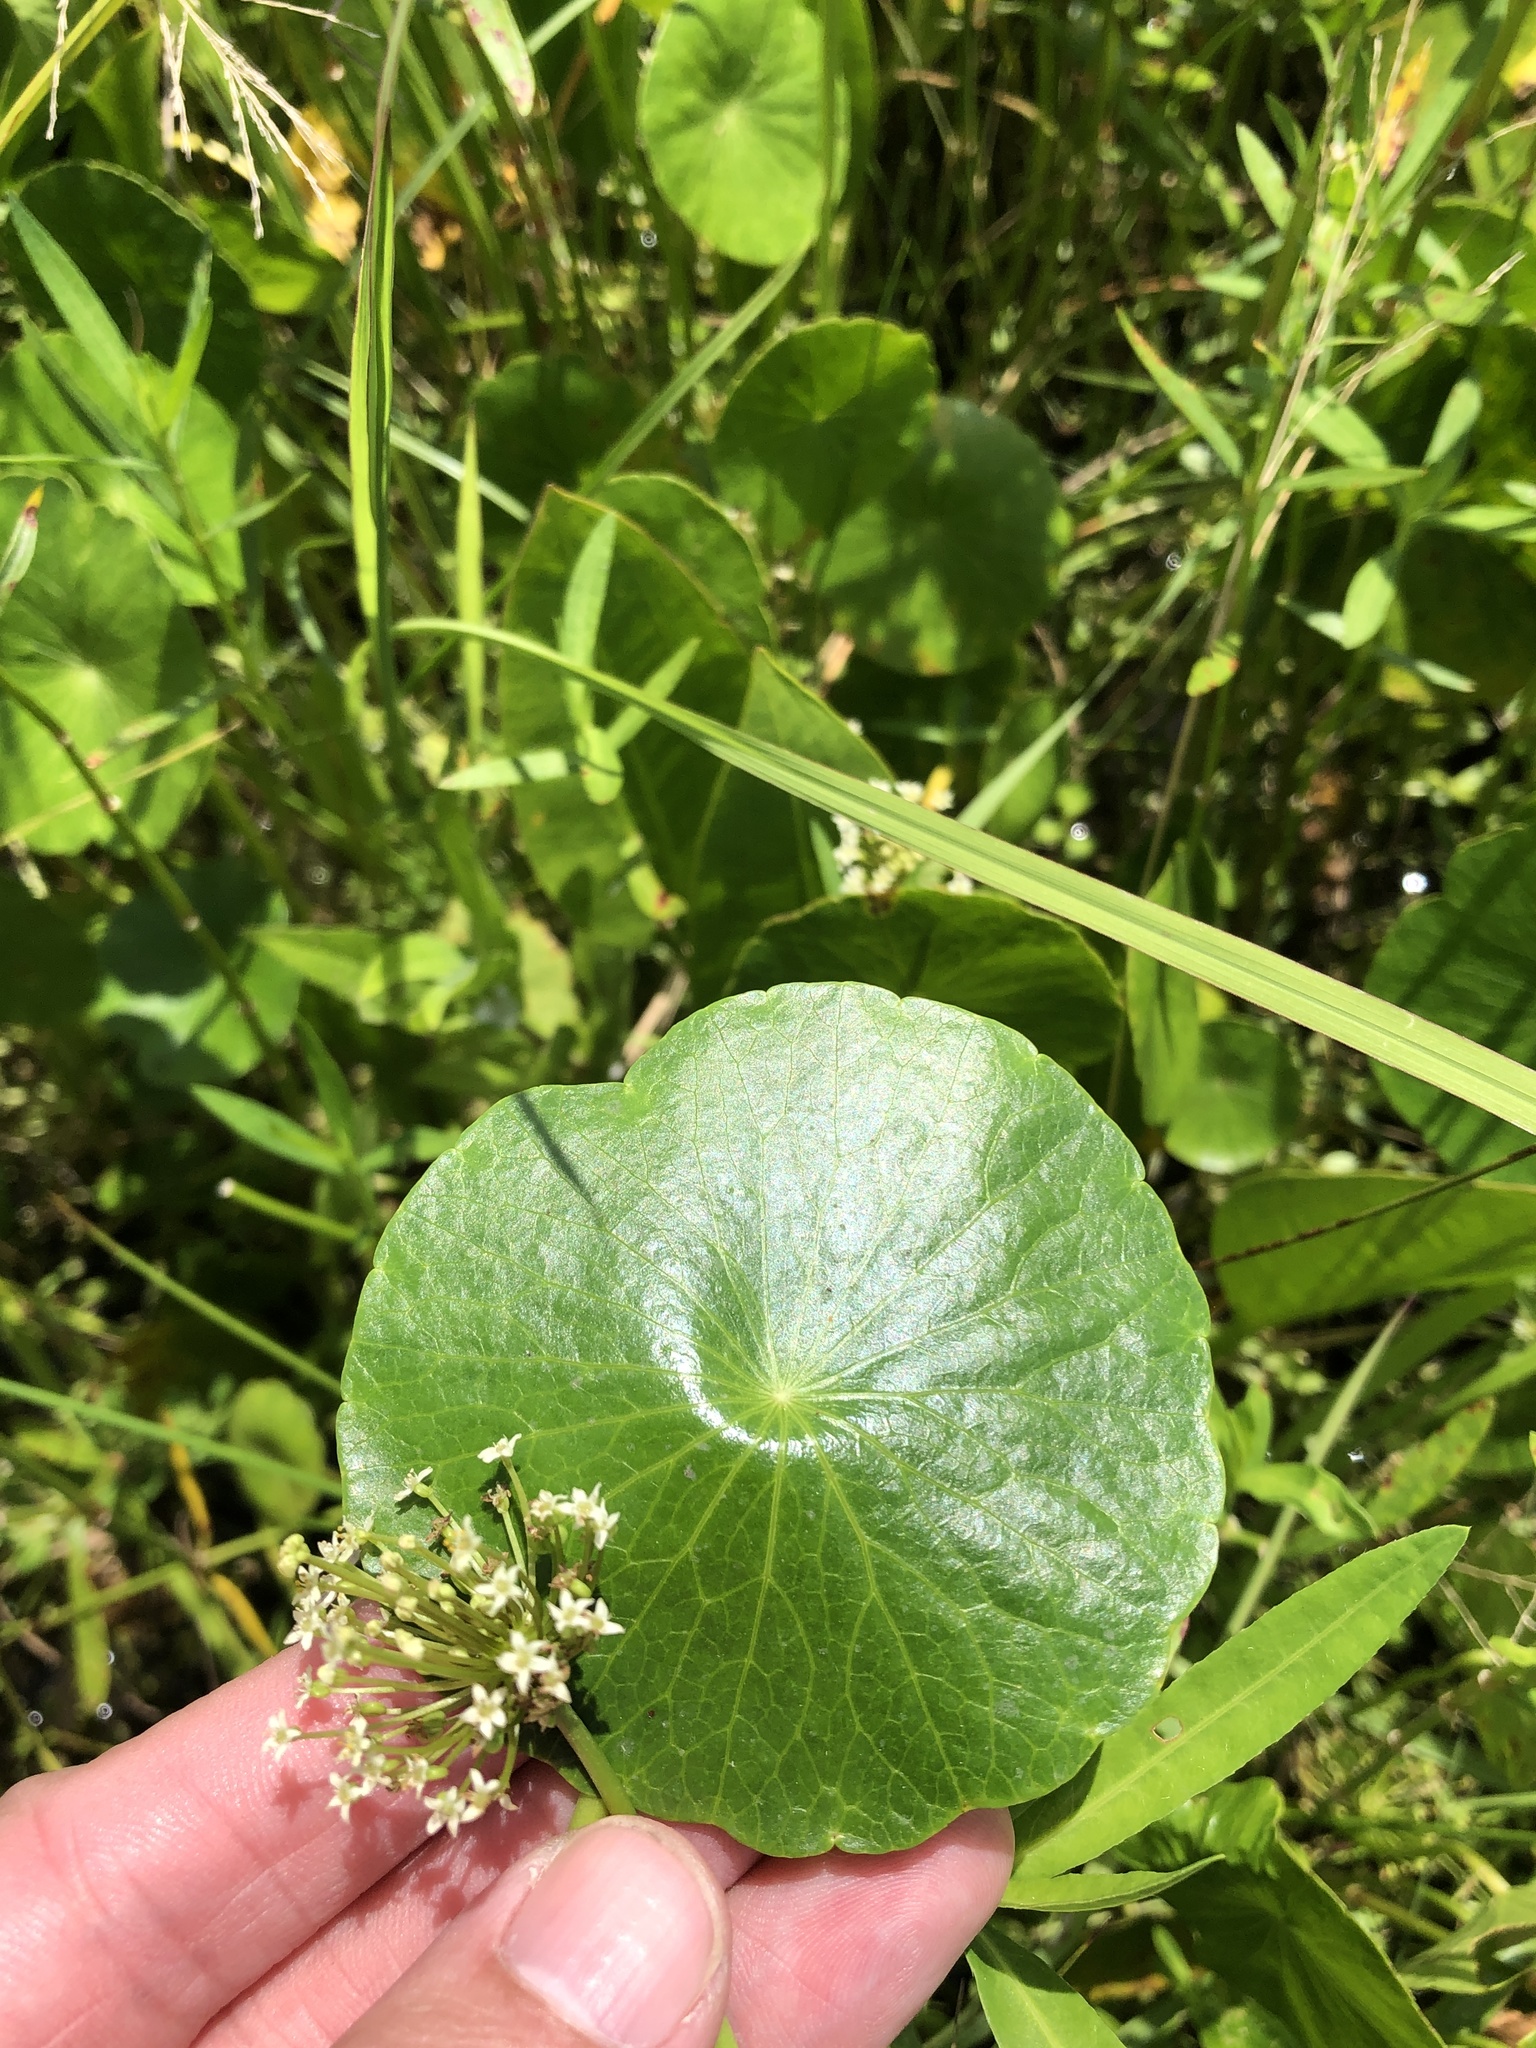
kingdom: Plantae
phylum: Tracheophyta
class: Magnoliopsida
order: Apiales
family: Araliaceae
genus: Hydrocotyle
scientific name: Hydrocotyle umbellata
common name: Water pennywort
